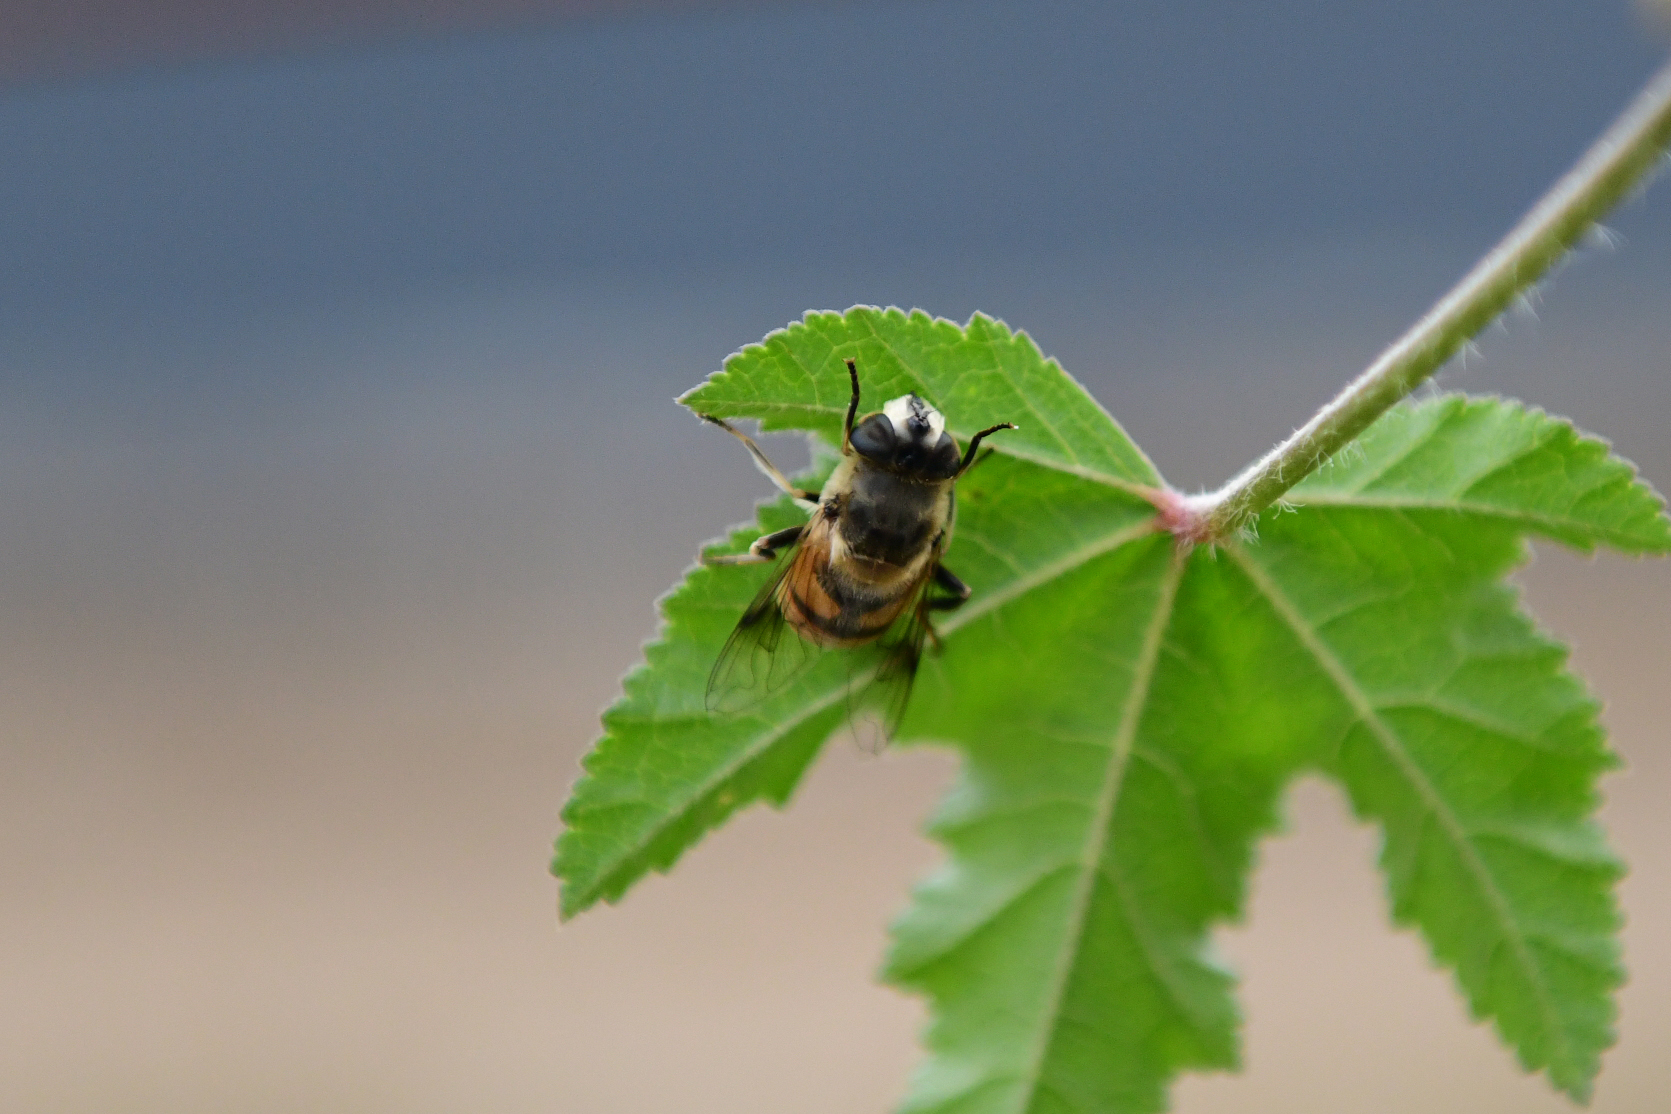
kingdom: Animalia
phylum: Arthropoda
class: Insecta
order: Diptera
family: Syrphidae
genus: Eristalis
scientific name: Eristalis tenax
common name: Drone fly
